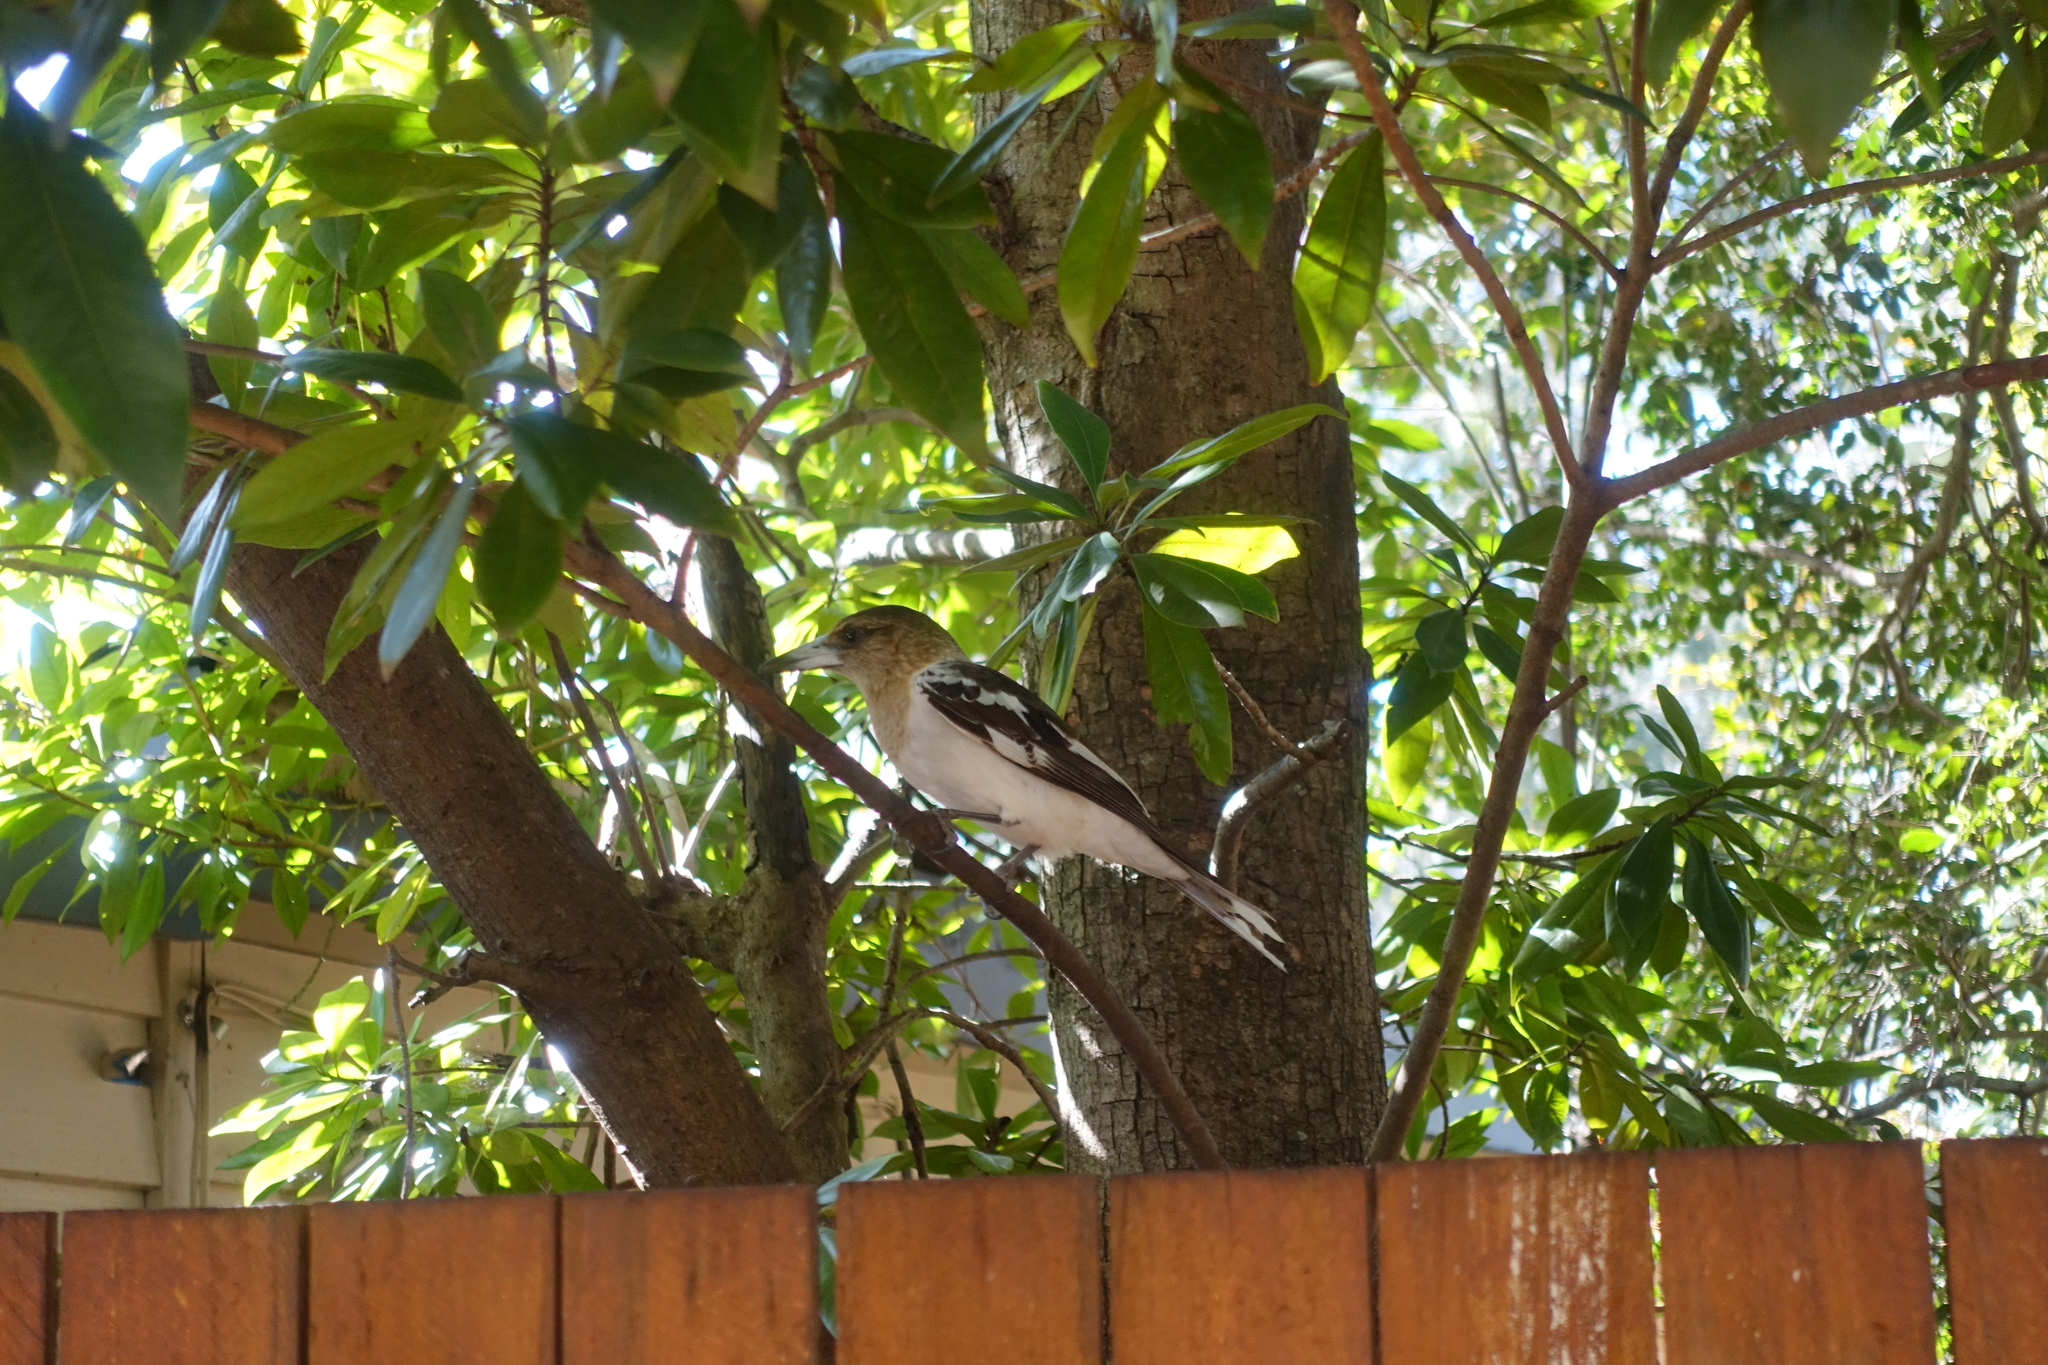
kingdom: Animalia
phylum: Chordata
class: Aves
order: Passeriformes
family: Cracticidae
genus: Cracticus
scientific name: Cracticus nigrogularis
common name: Pied butcherbird
